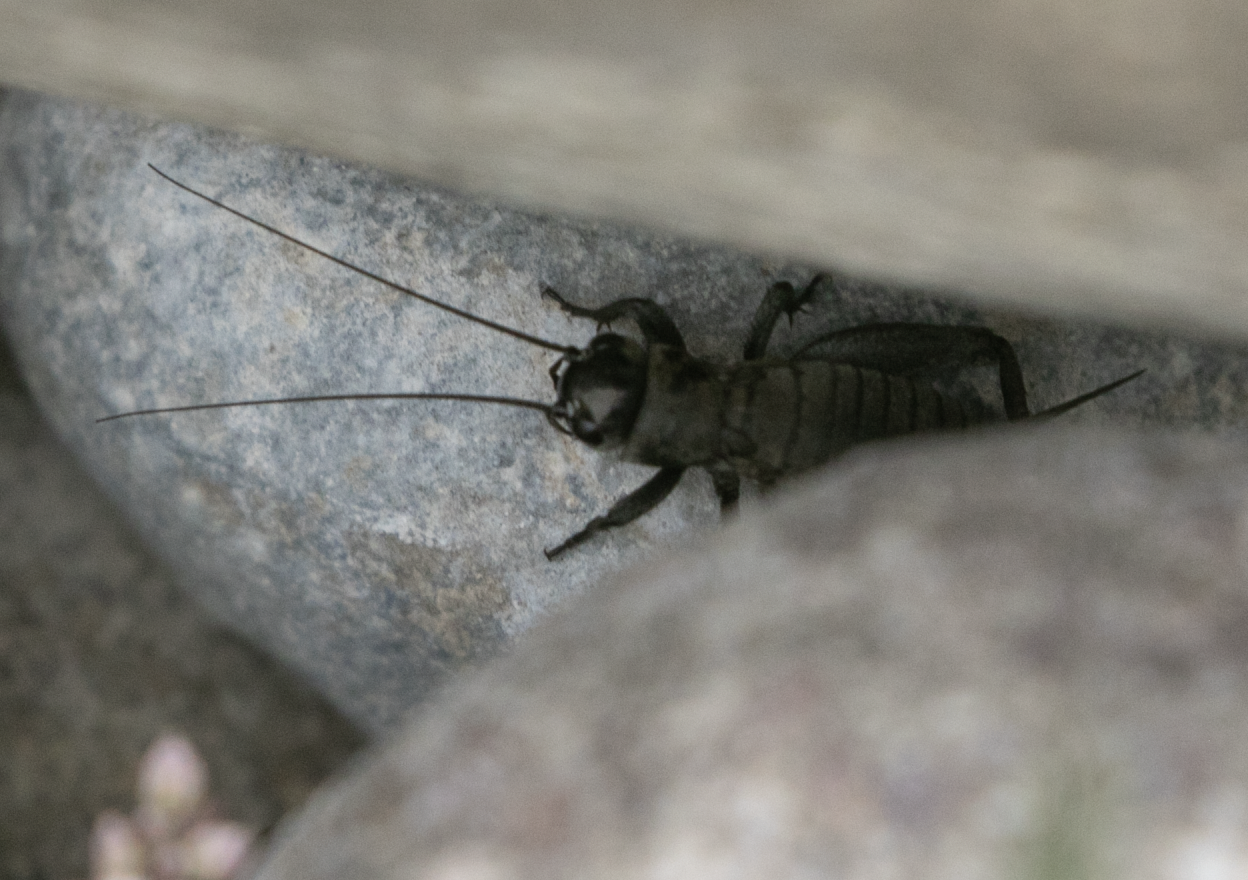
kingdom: Animalia
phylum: Arthropoda
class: Insecta
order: Orthoptera
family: Gryllidae
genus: Melanogryllus
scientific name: Melanogryllus desertus
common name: Desert cricket
